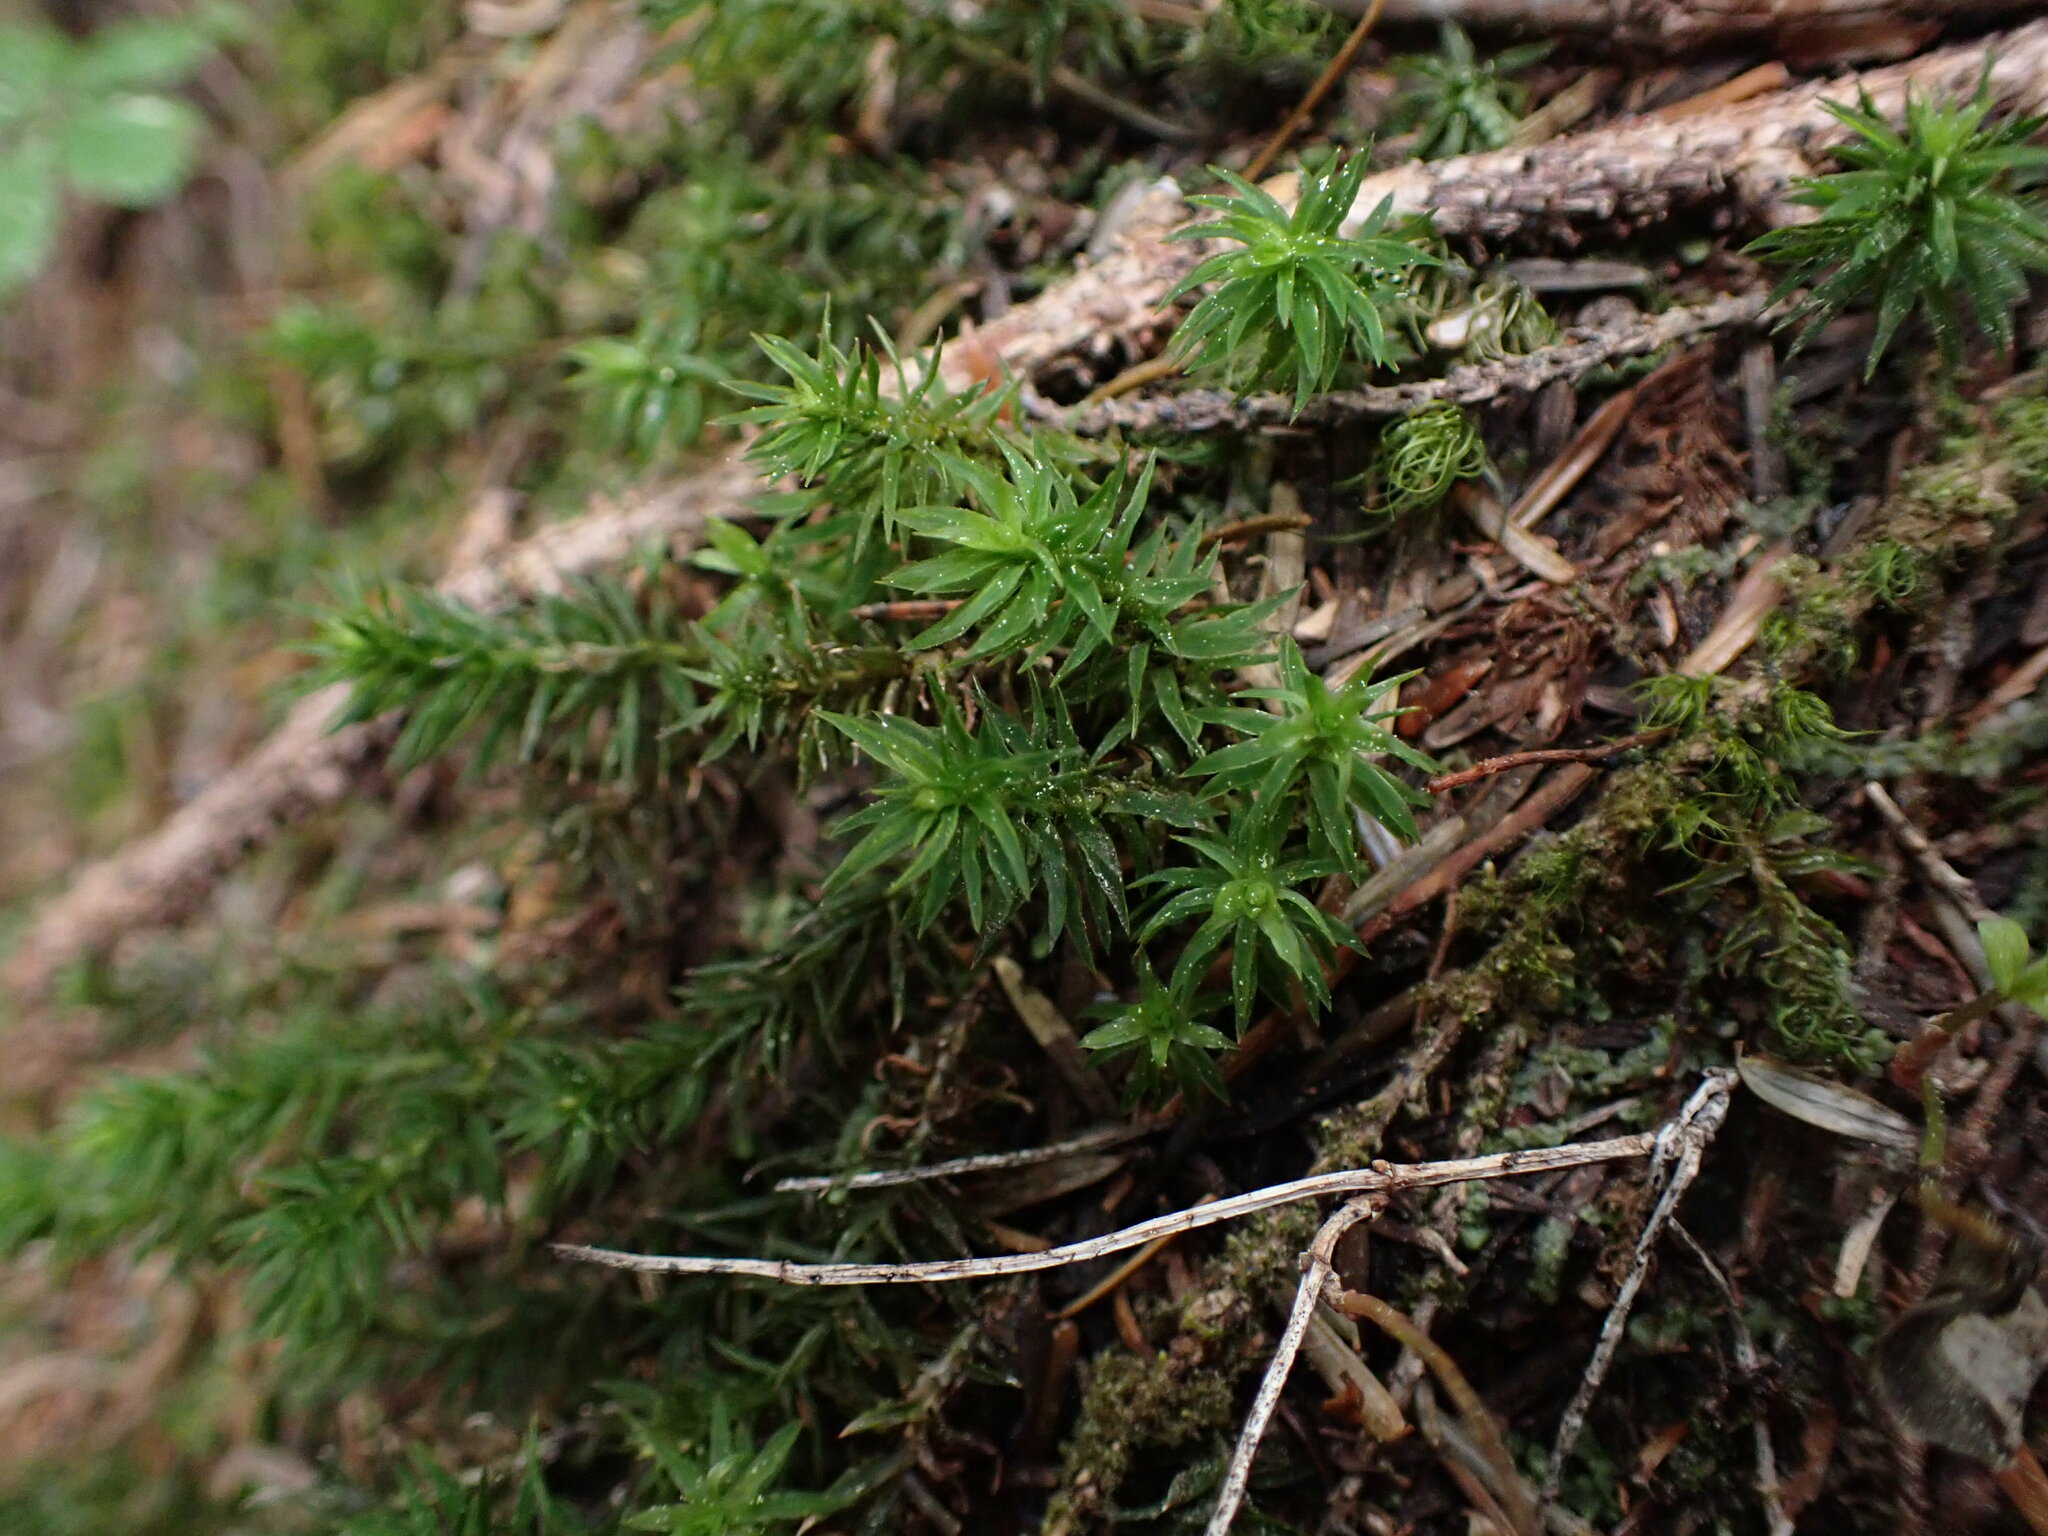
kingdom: Plantae
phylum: Bryophyta
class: Polytrichopsida
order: Polytrichales
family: Polytrichaceae
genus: Pogonatum
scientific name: Pogonatum contortum
